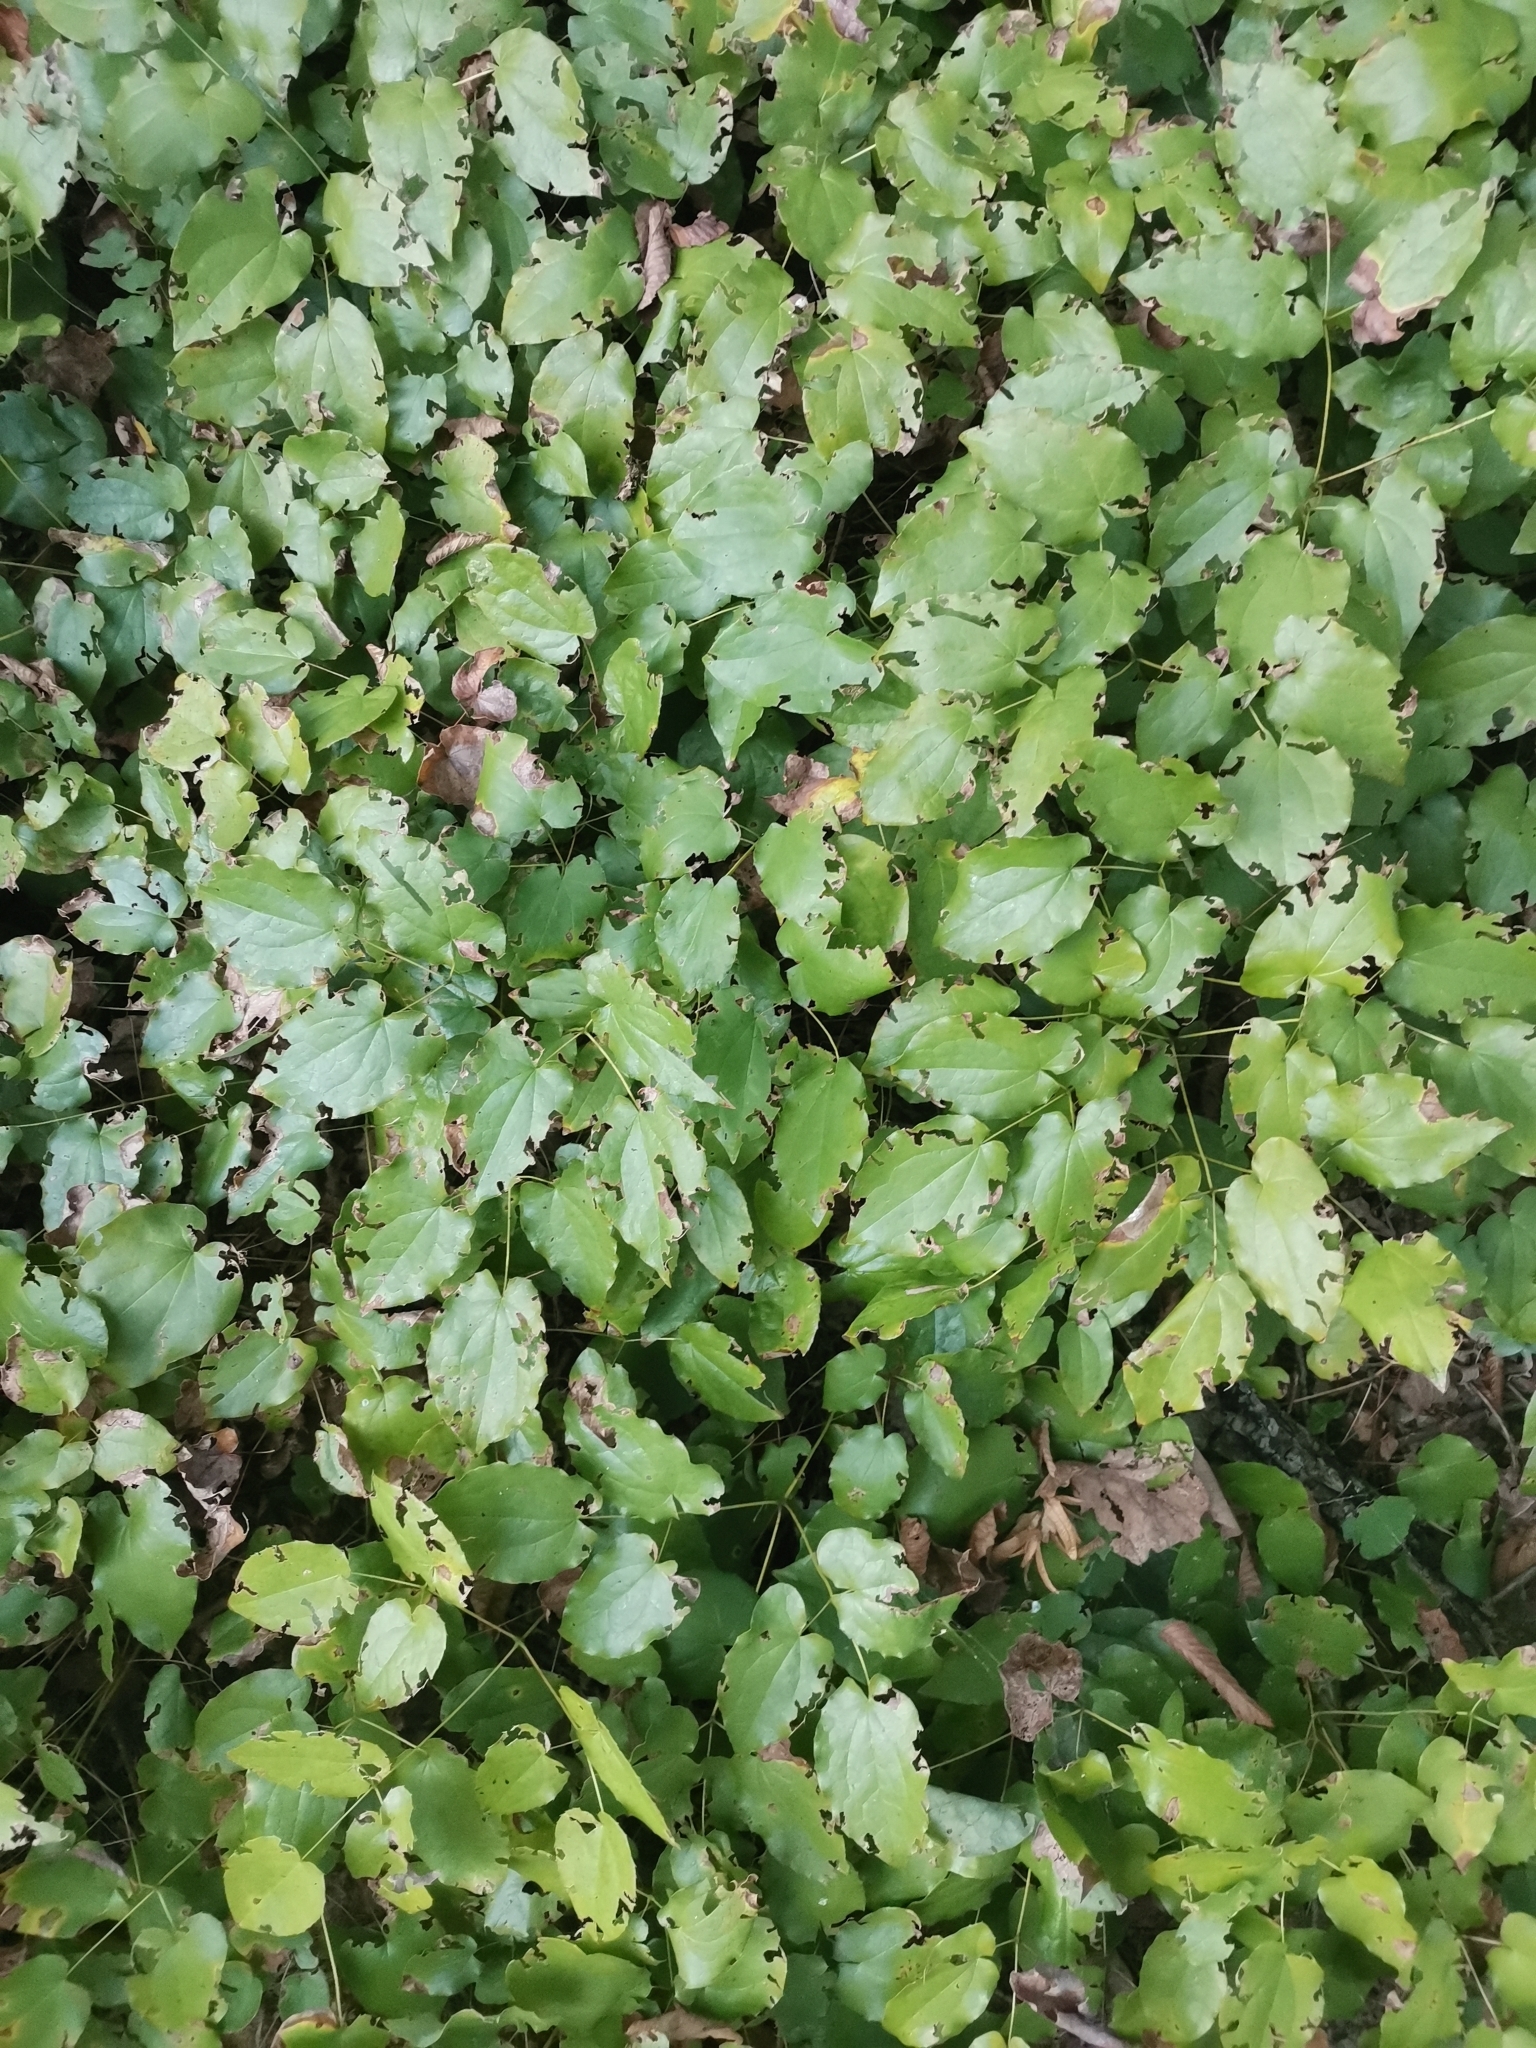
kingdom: Plantae
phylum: Tracheophyta
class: Magnoliopsida
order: Ranunculales
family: Berberidaceae
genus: Epimedium
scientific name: Epimedium alpinum
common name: Barrenwort
